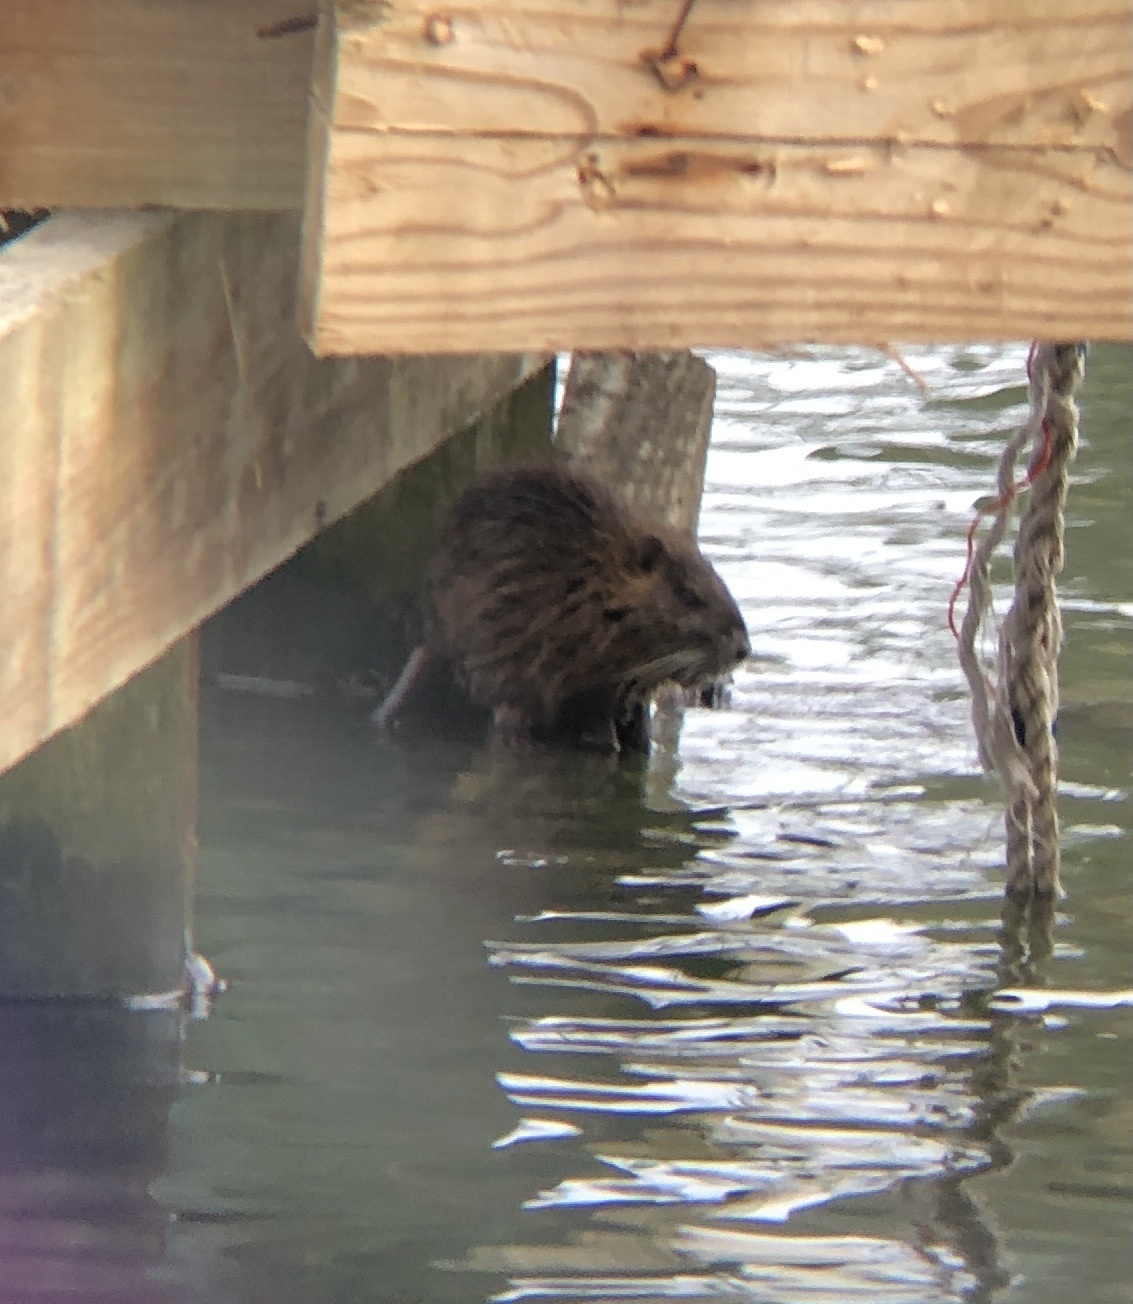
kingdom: Animalia
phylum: Chordata
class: Mammalia
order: Rodentia
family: Myocastoridae
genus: Myocastor
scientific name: Myocastor coypus
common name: Coypu
